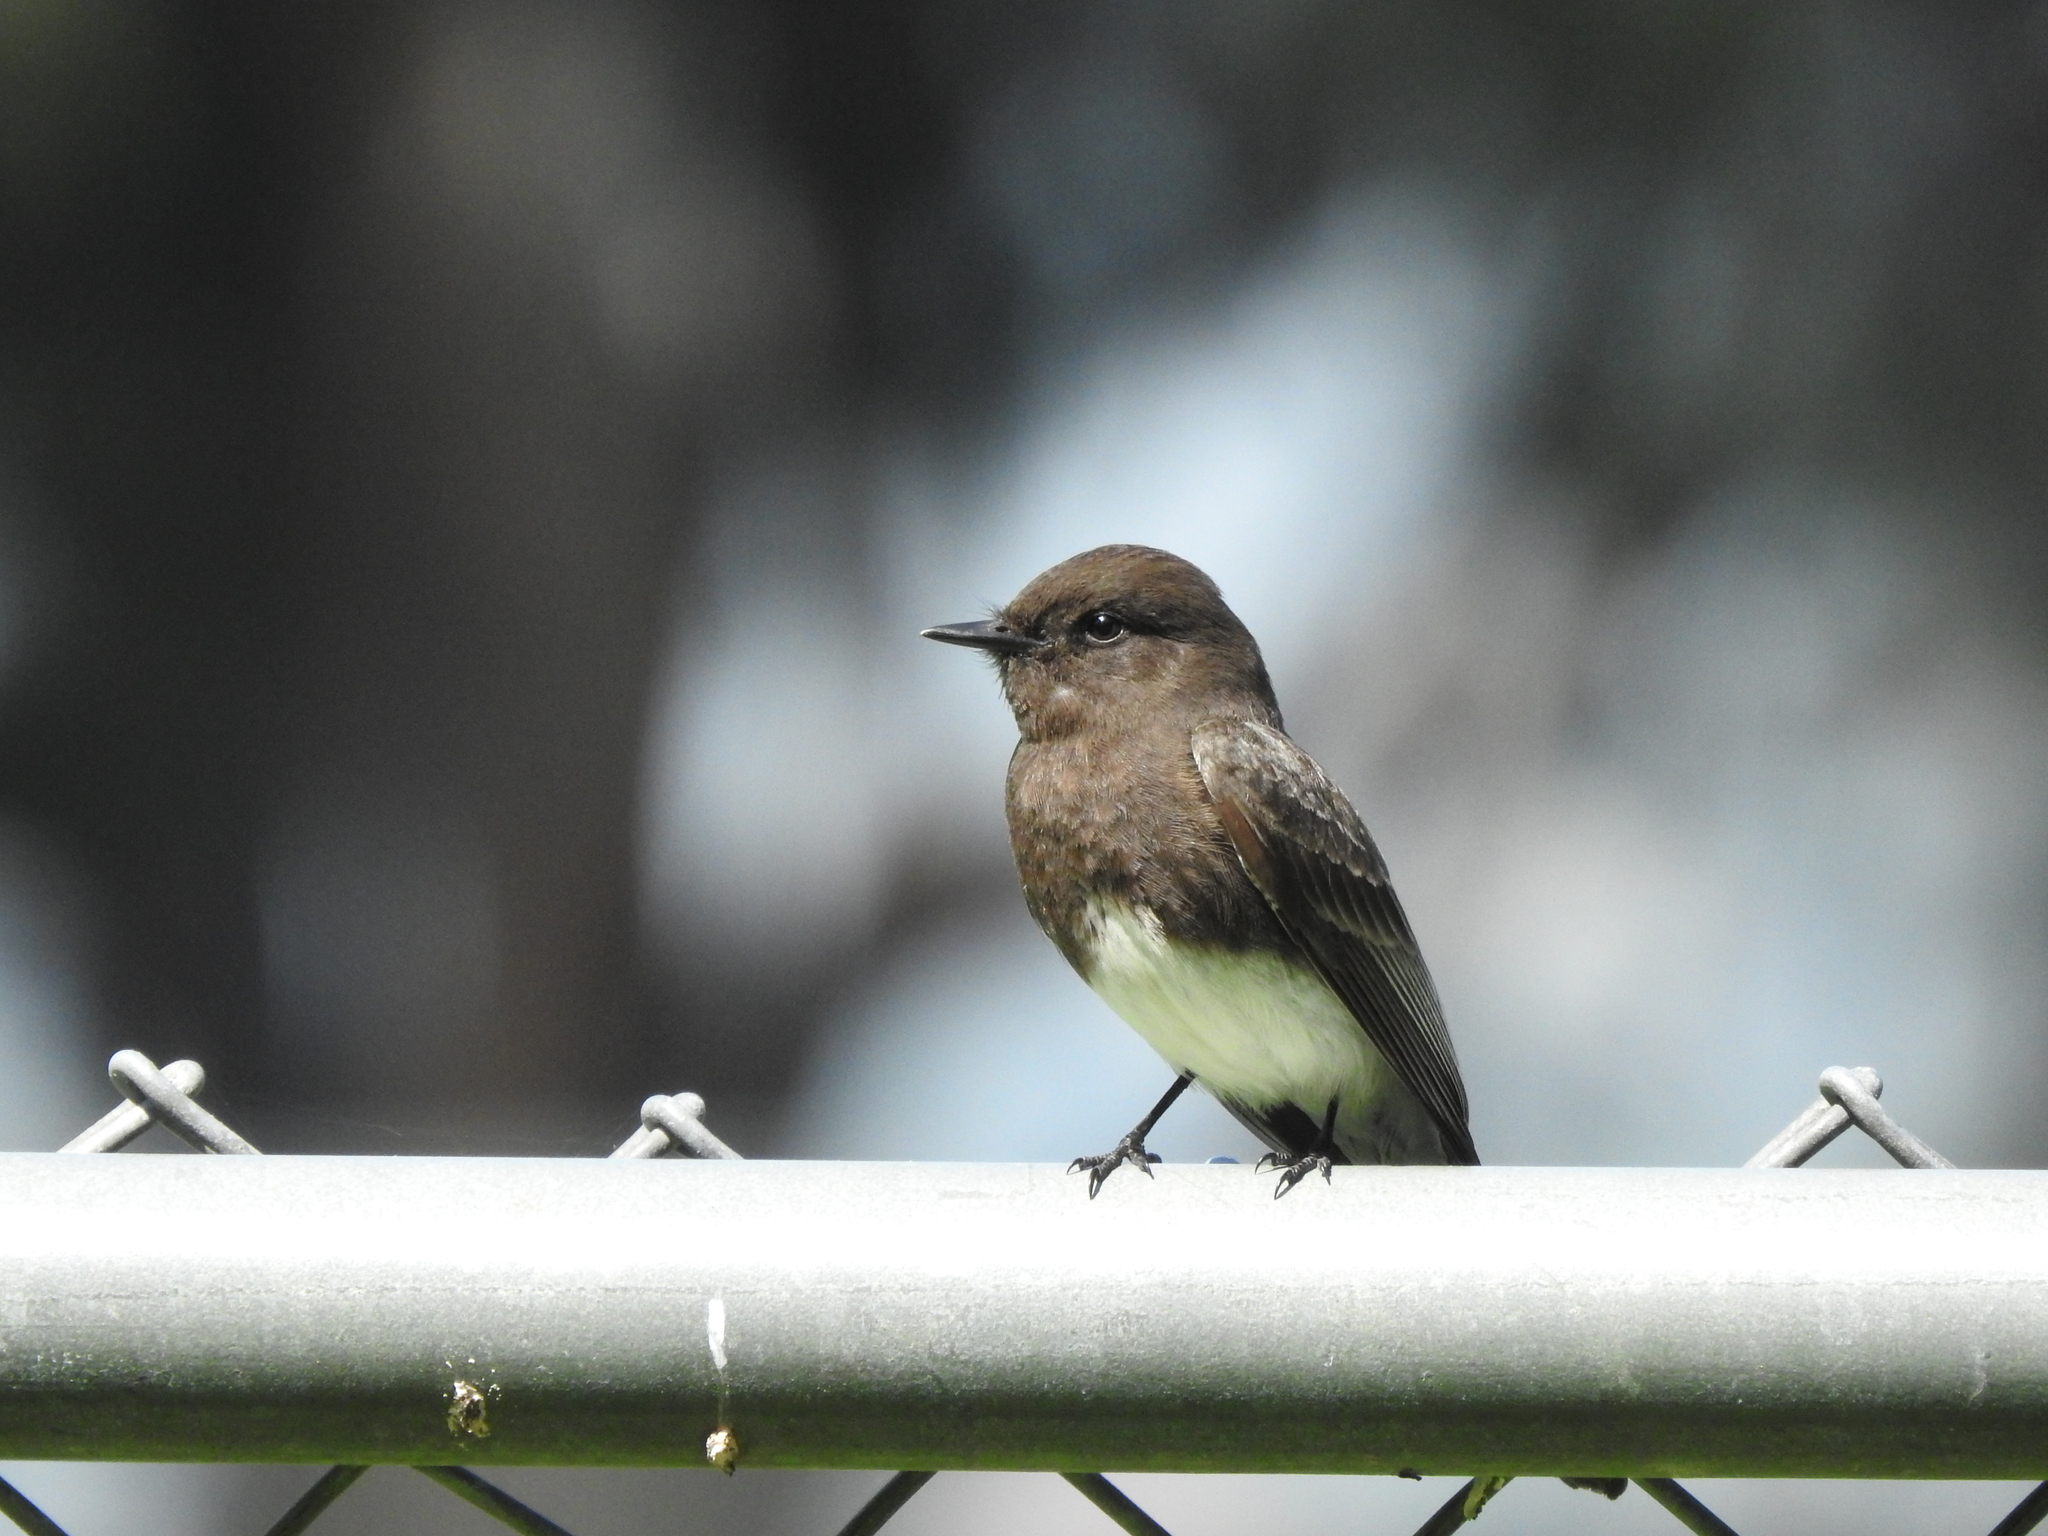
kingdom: Animalia
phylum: Chordata
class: Aves
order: Passeriformes
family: Tyrannidae
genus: Sayornis
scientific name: Sayornis nigricans
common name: Black phoebe
